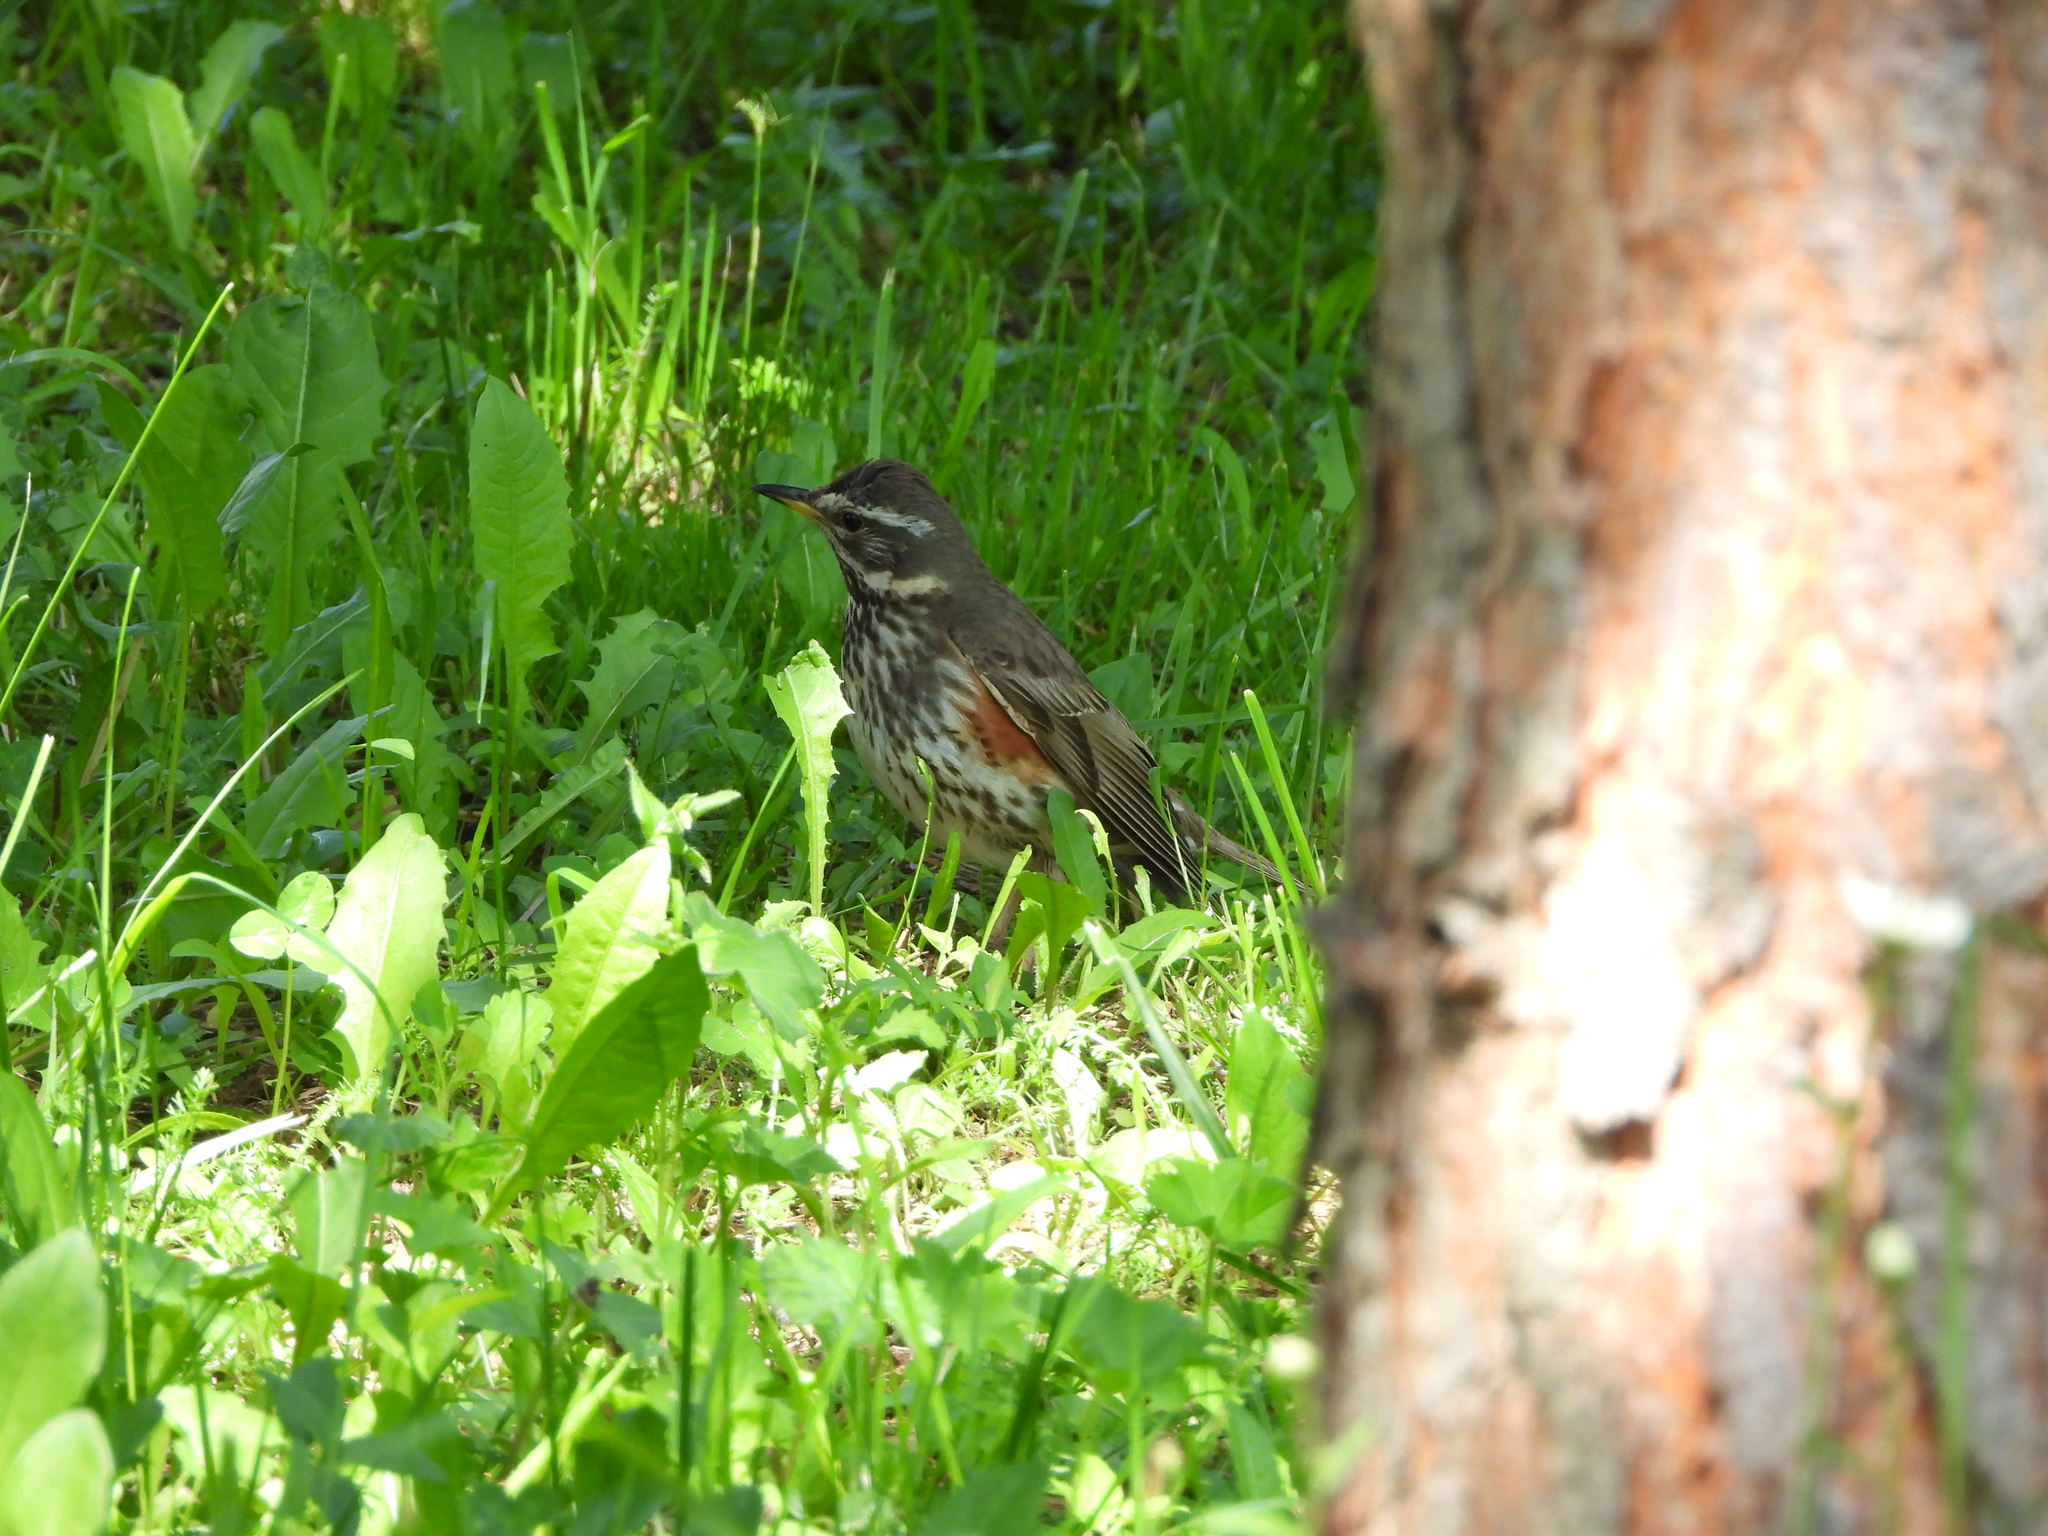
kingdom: Animalia
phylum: Chordata
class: Aves
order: Passeriformes
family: Turdidae
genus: Turdus
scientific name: Turdus iliacus
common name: Redwing
